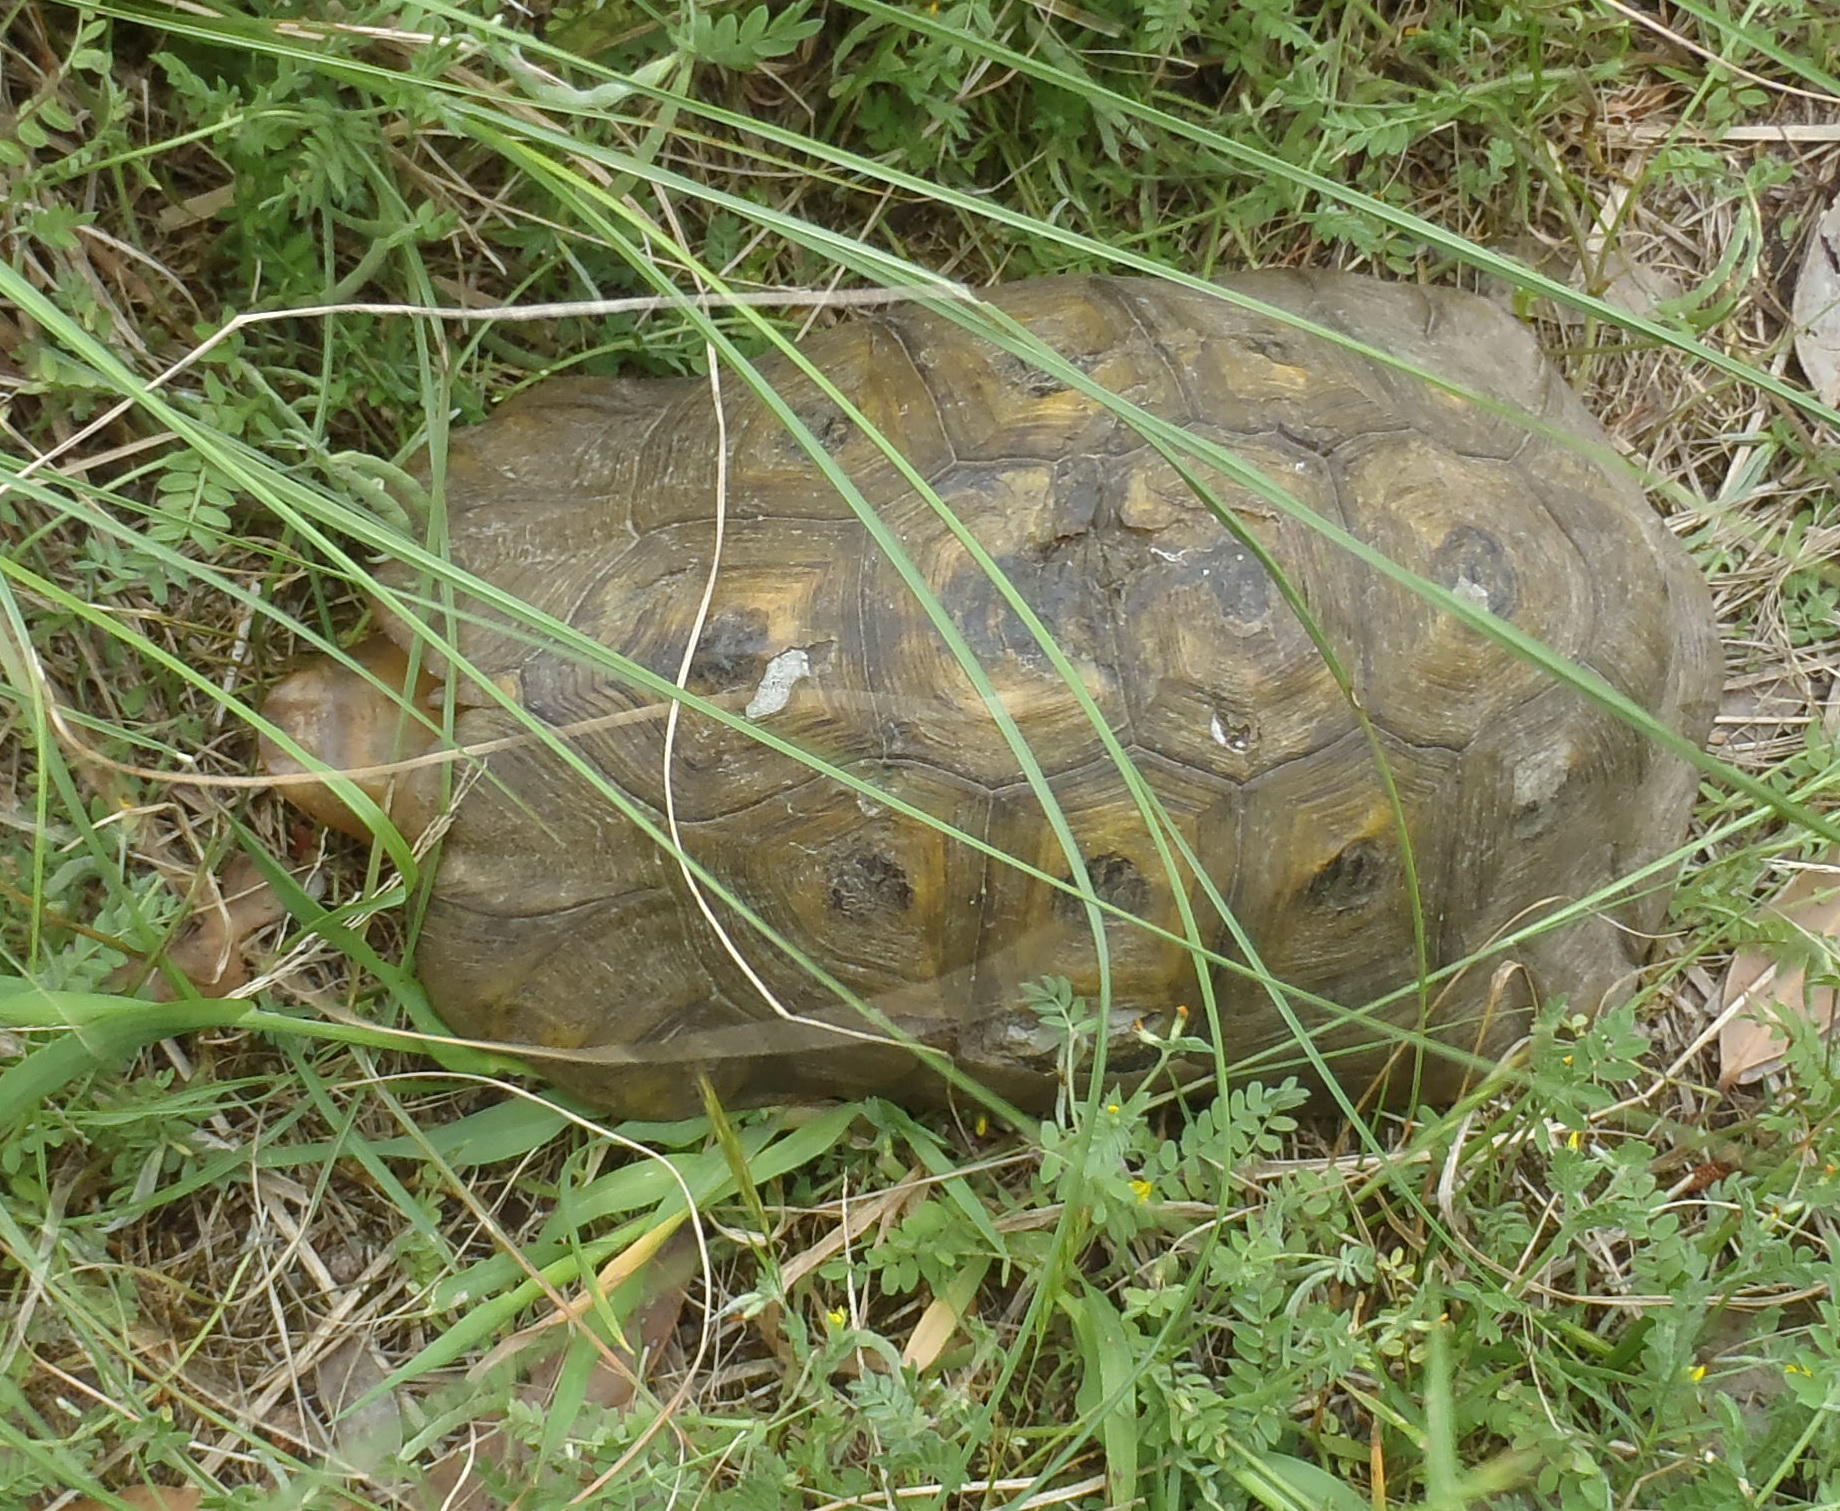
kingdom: Animalia
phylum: Chordata
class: Testudines
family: Testudinidae
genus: Chersina
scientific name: Chersina angulata
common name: South african bowsprit tortoise
